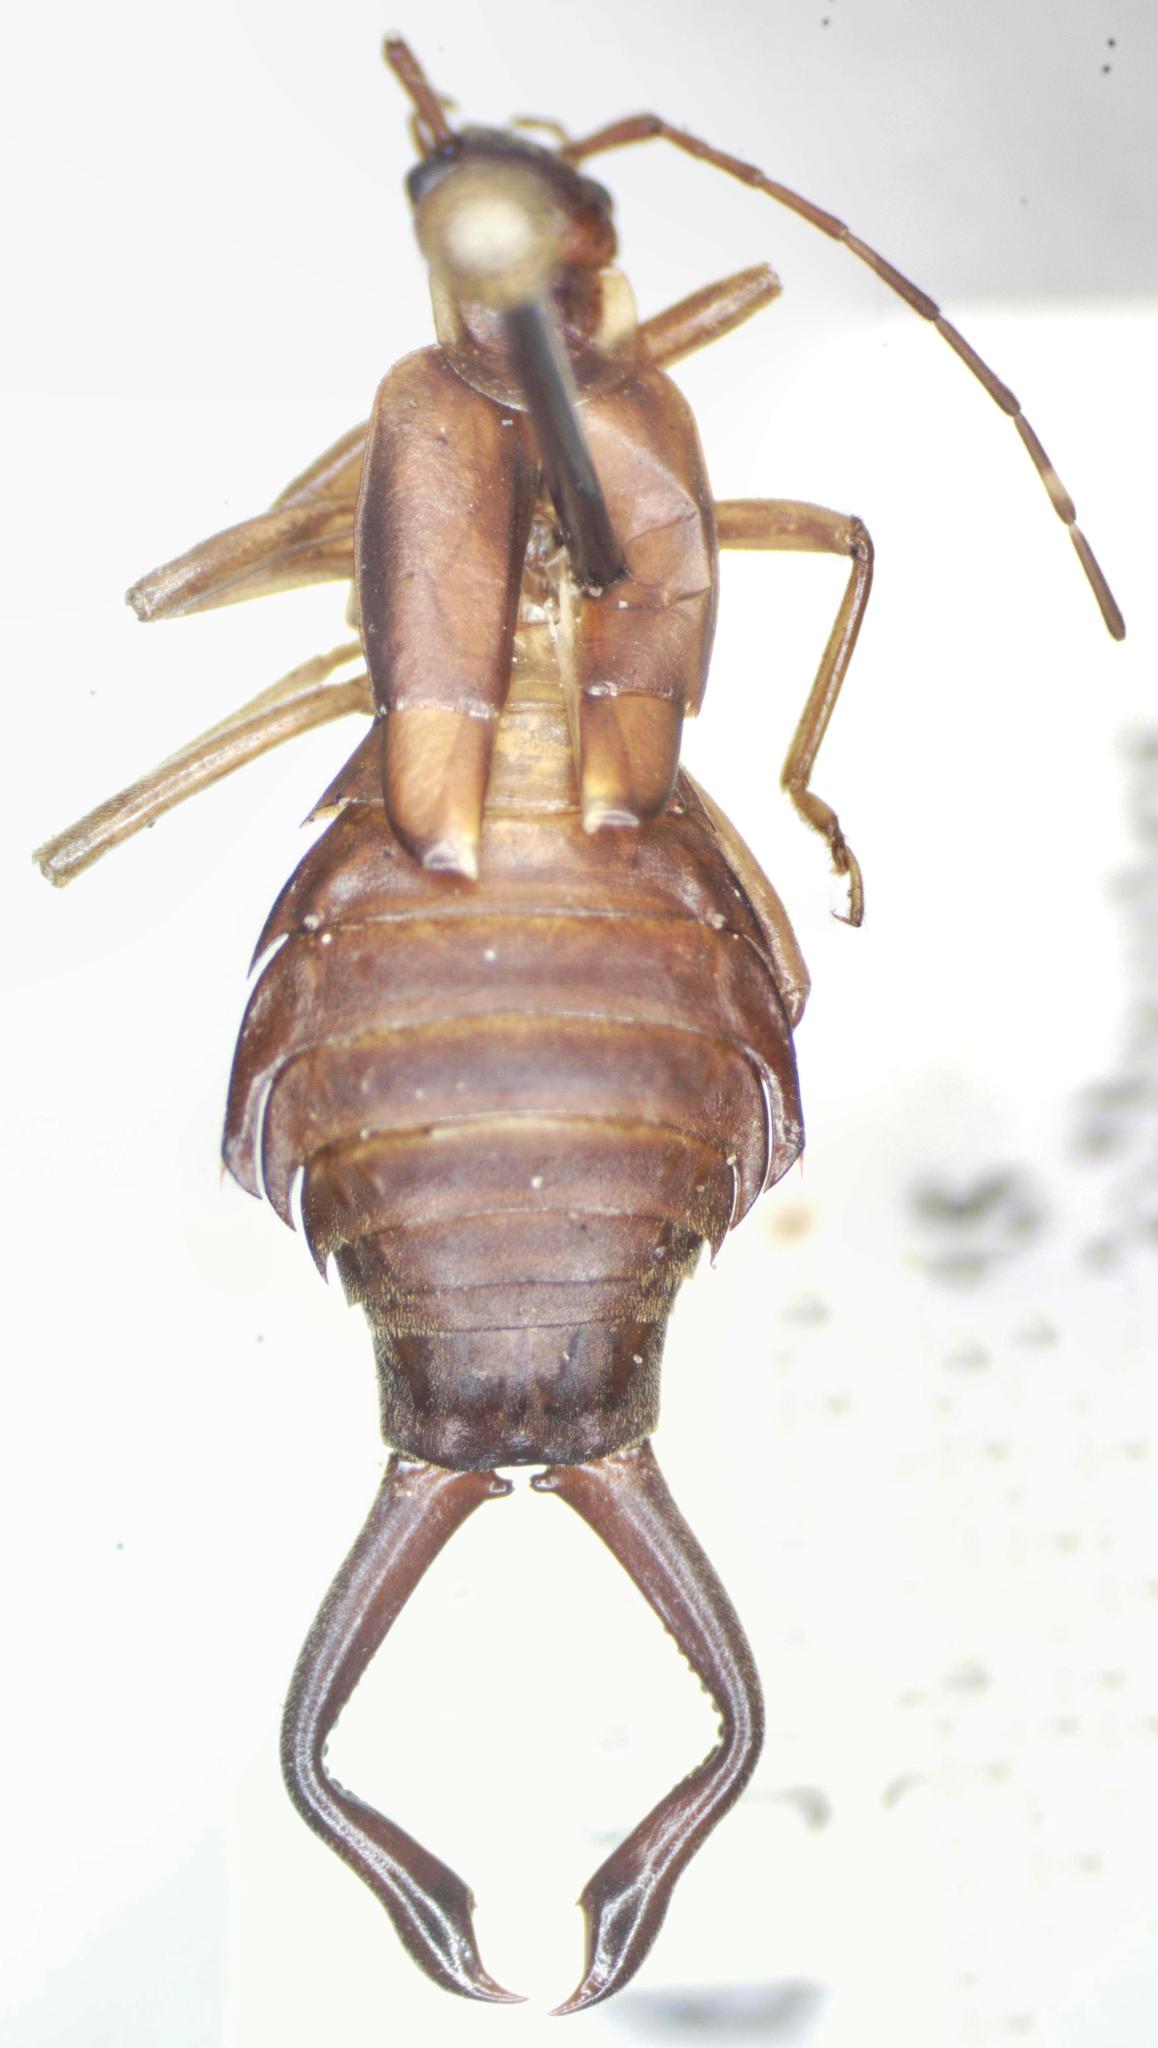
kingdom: Animalia
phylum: Arthropoda
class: Insecta
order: Dermaptera
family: Forficulidae
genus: Ancistrogaster
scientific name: Ancistrogaster luctuosus
